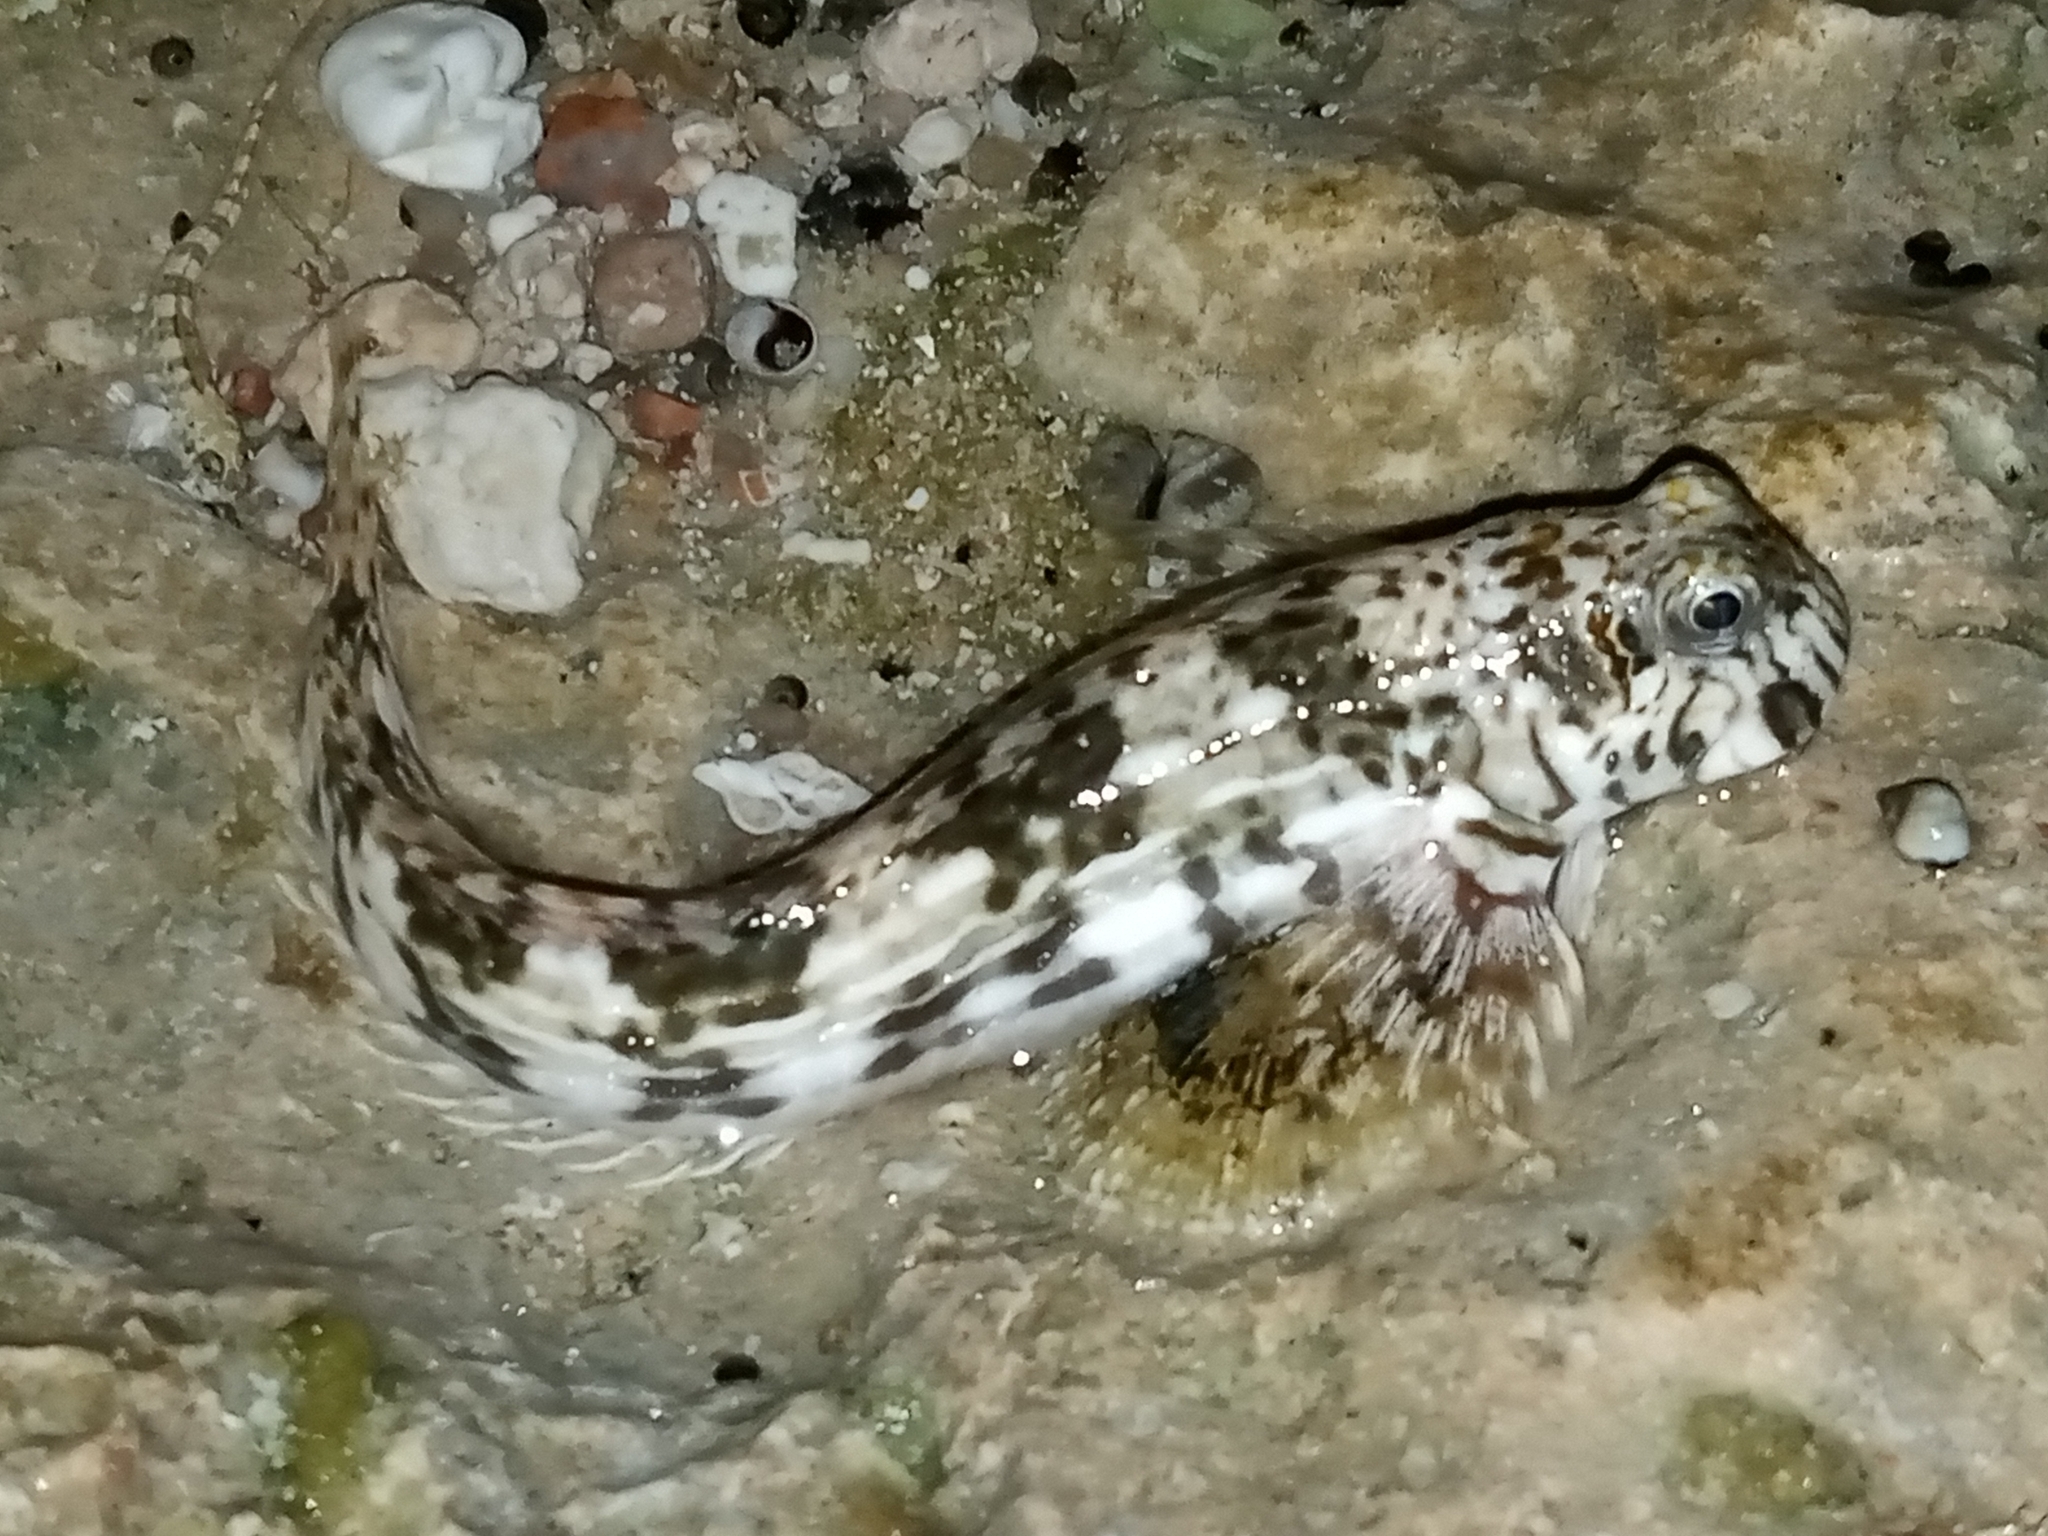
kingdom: Animalia
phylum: Chordata
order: Perciformes
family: Blenniidae
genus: Istiblennius
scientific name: Istiblennius unicolor
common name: Pallid rockskipper
